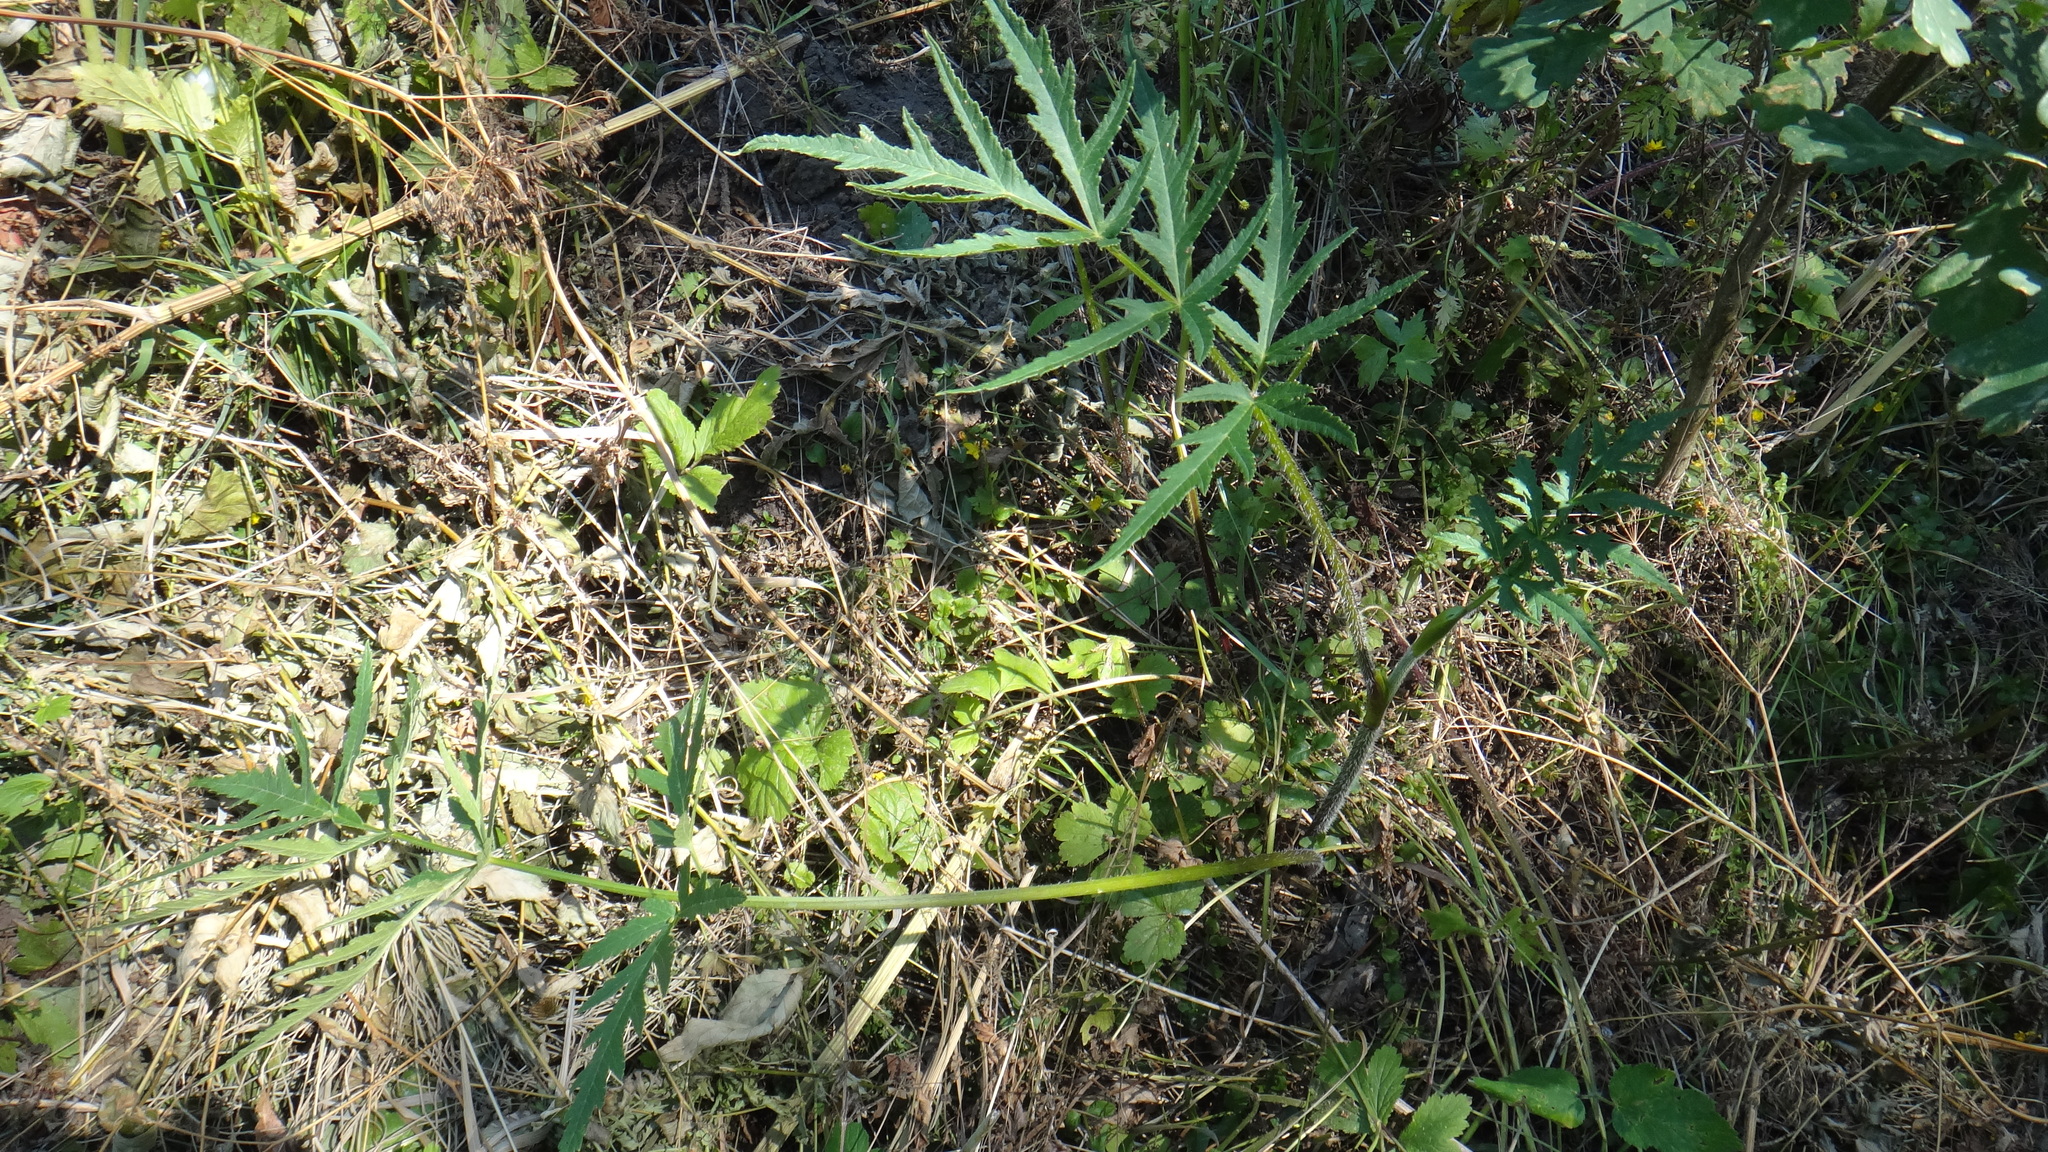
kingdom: Plantae
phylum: Tracheophyta
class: Magnoliopsida
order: Apiales
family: Apiaceae
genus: Heracleum
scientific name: Heracleum sphondylium
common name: Hogweed
